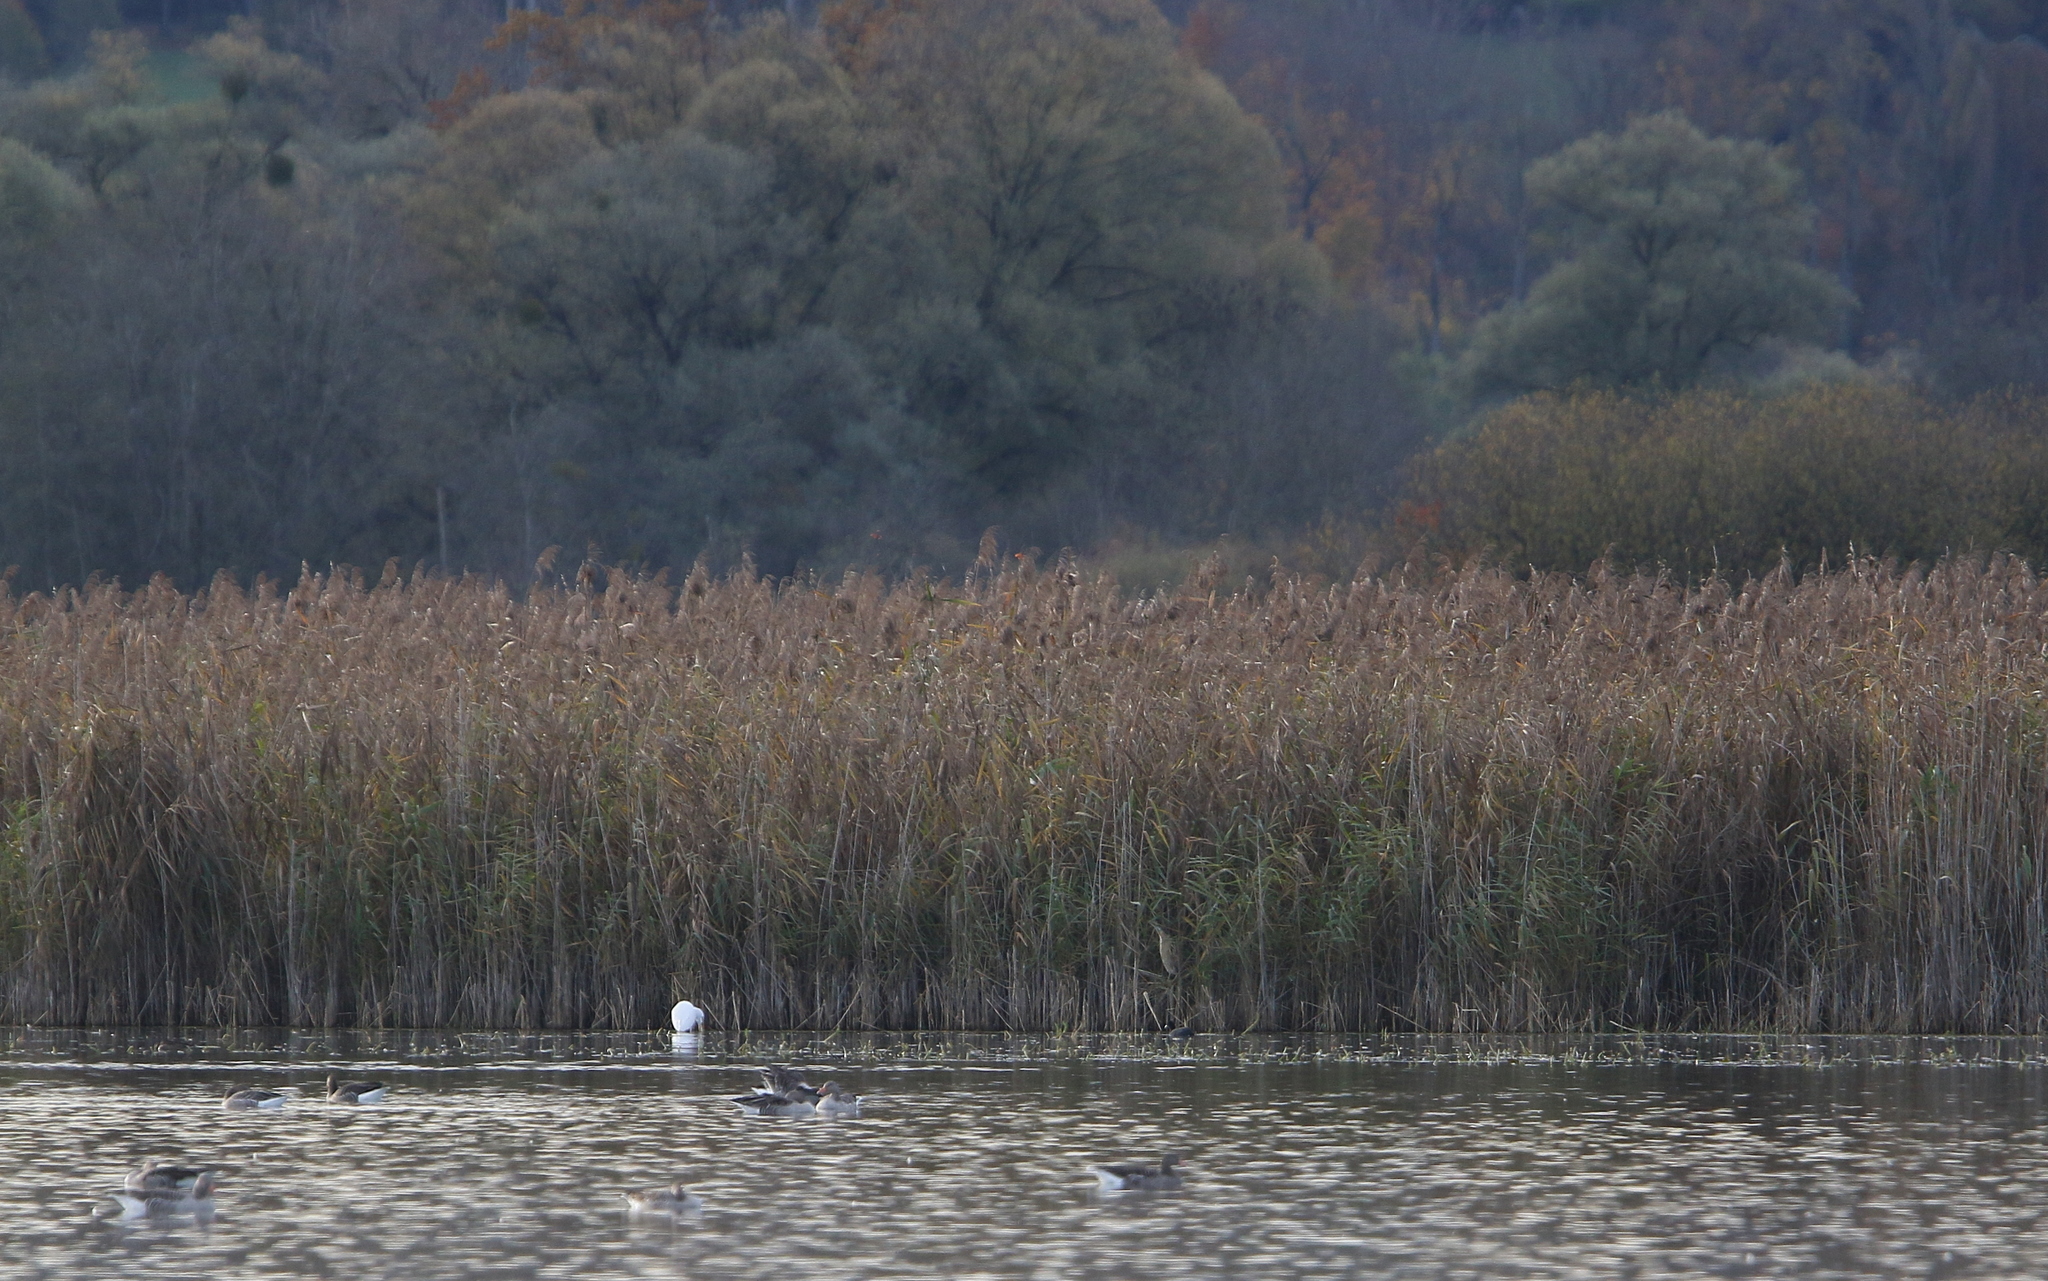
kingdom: Animalia
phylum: Chordata
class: Aves
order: Pelecaniformes
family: Ardeidae
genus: Botaurus
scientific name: Botaurus stellaris
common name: Eurasian bittern
